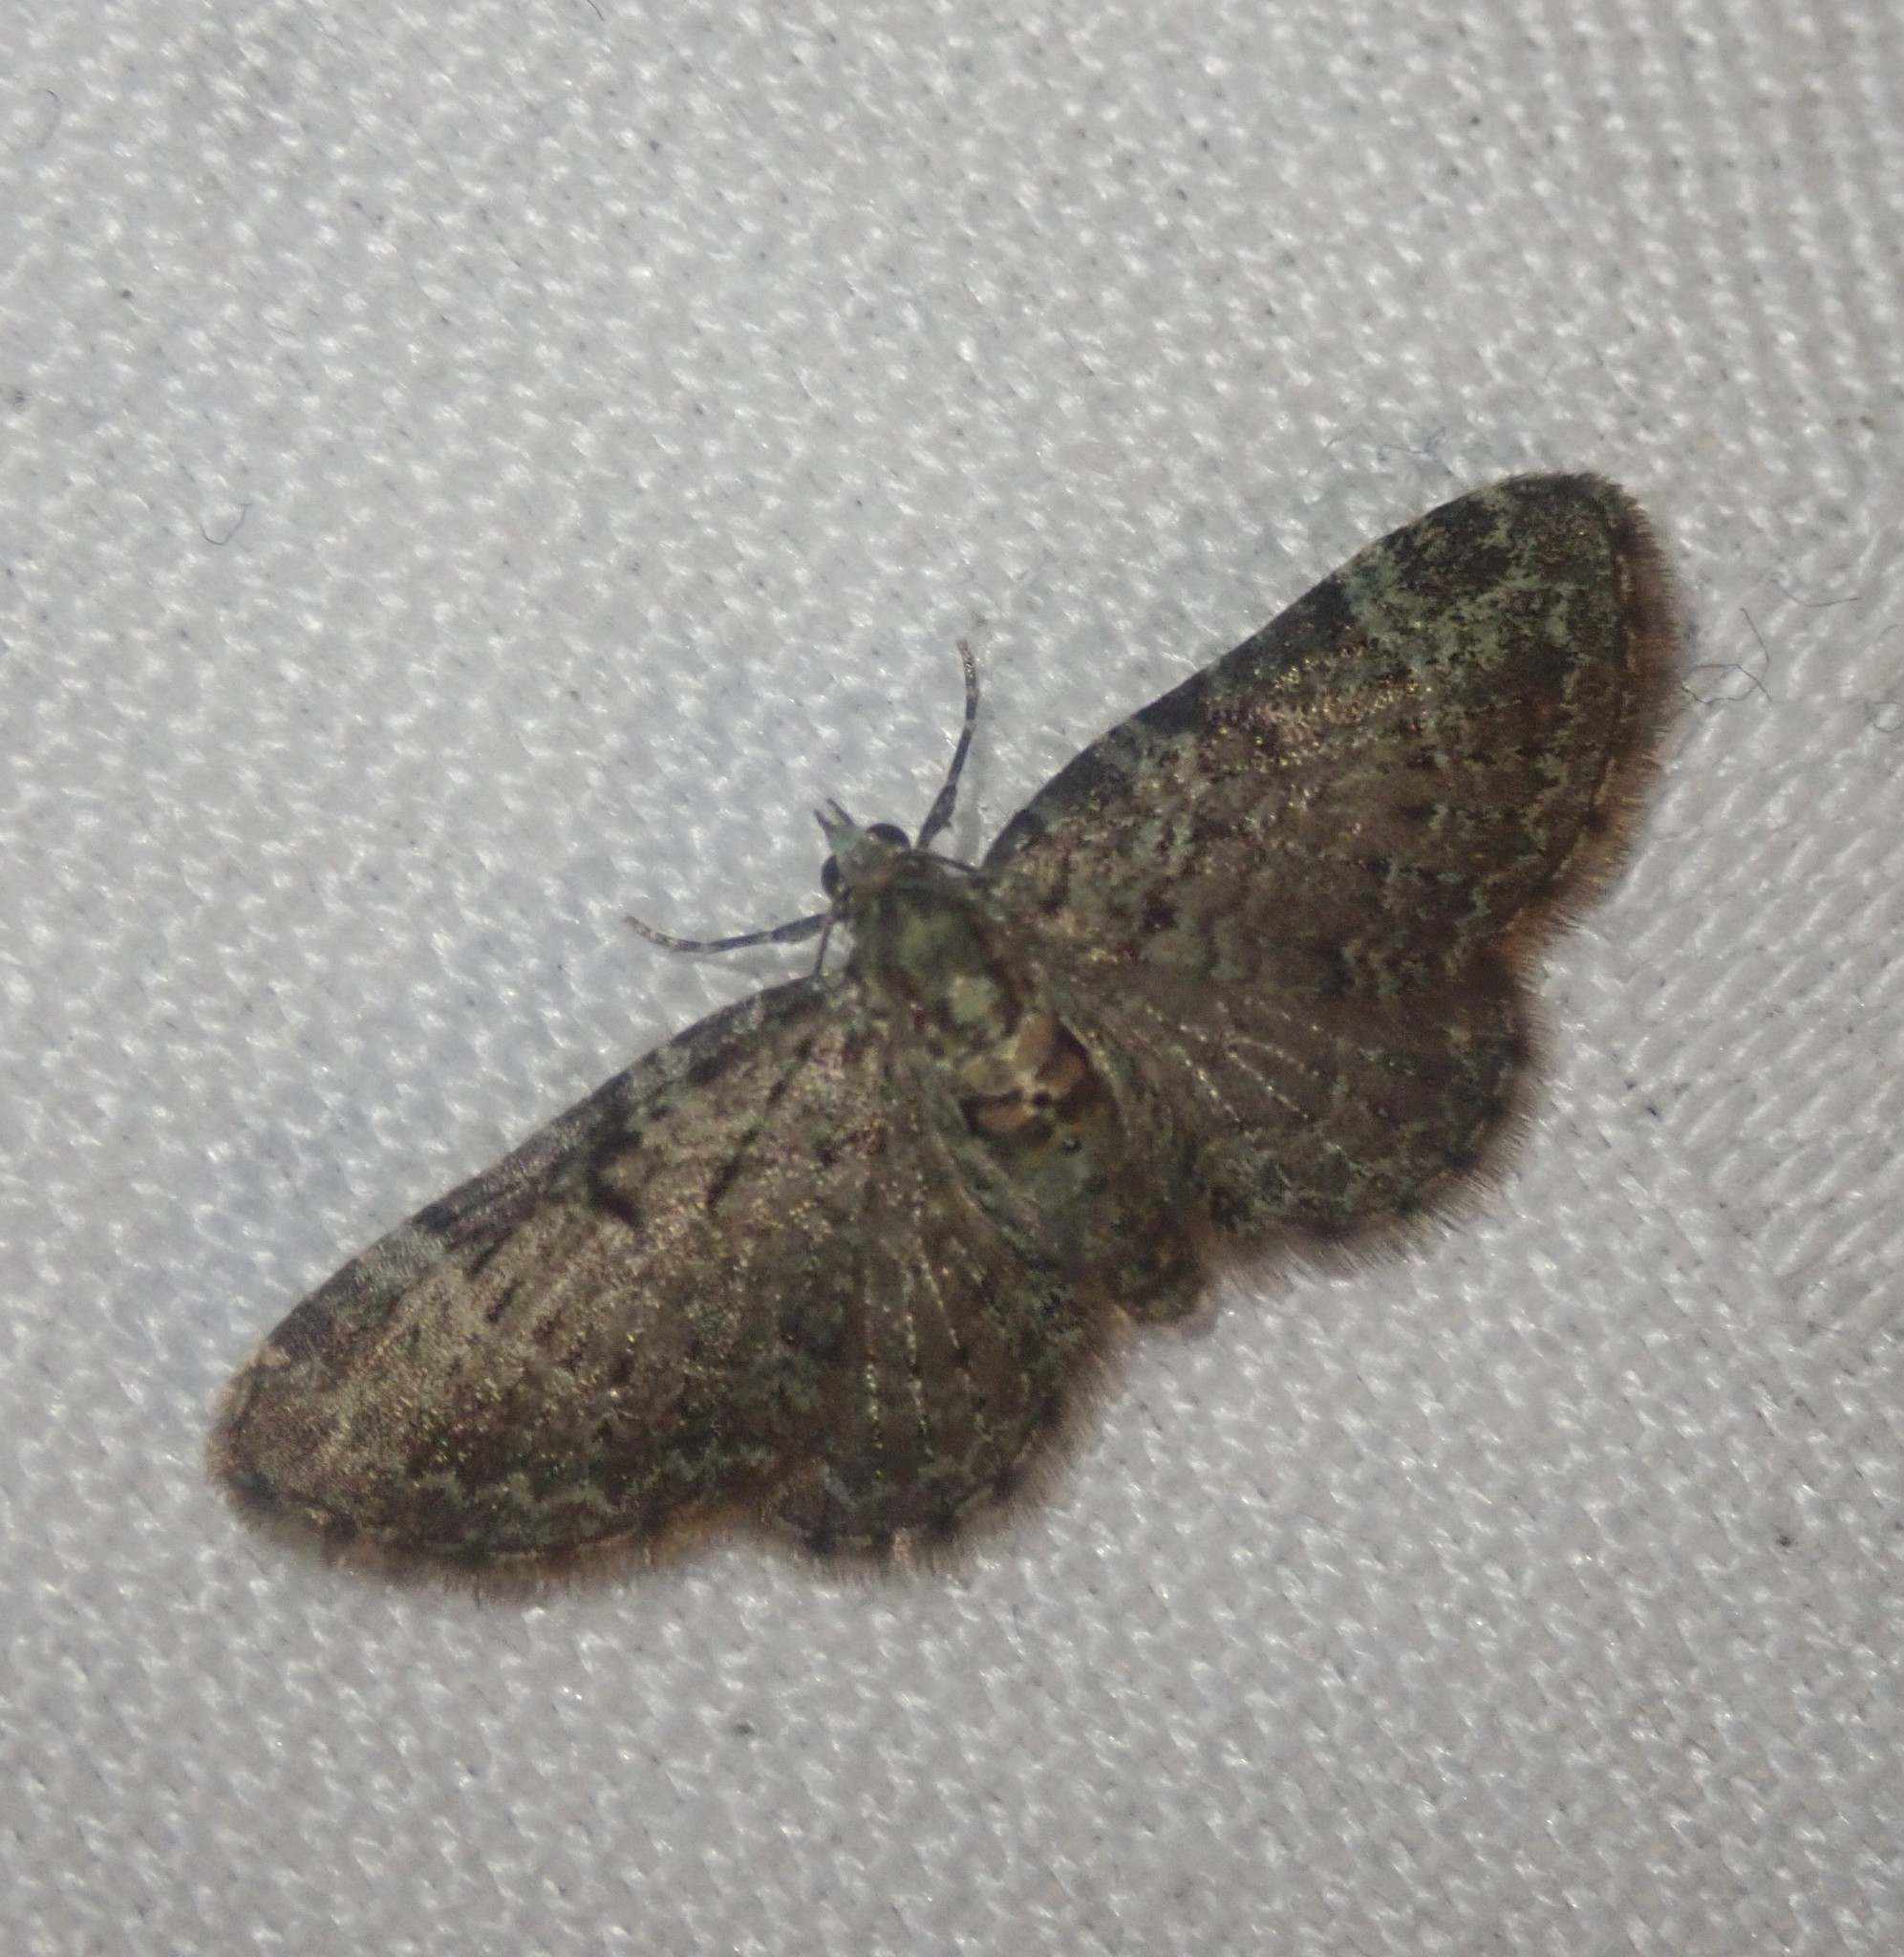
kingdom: Animalia
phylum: Arthropoda
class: Insecta
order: Lepidoptera
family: Geometridae
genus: Pasiphila
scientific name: Pasiphila rectangulata
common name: Green pug
